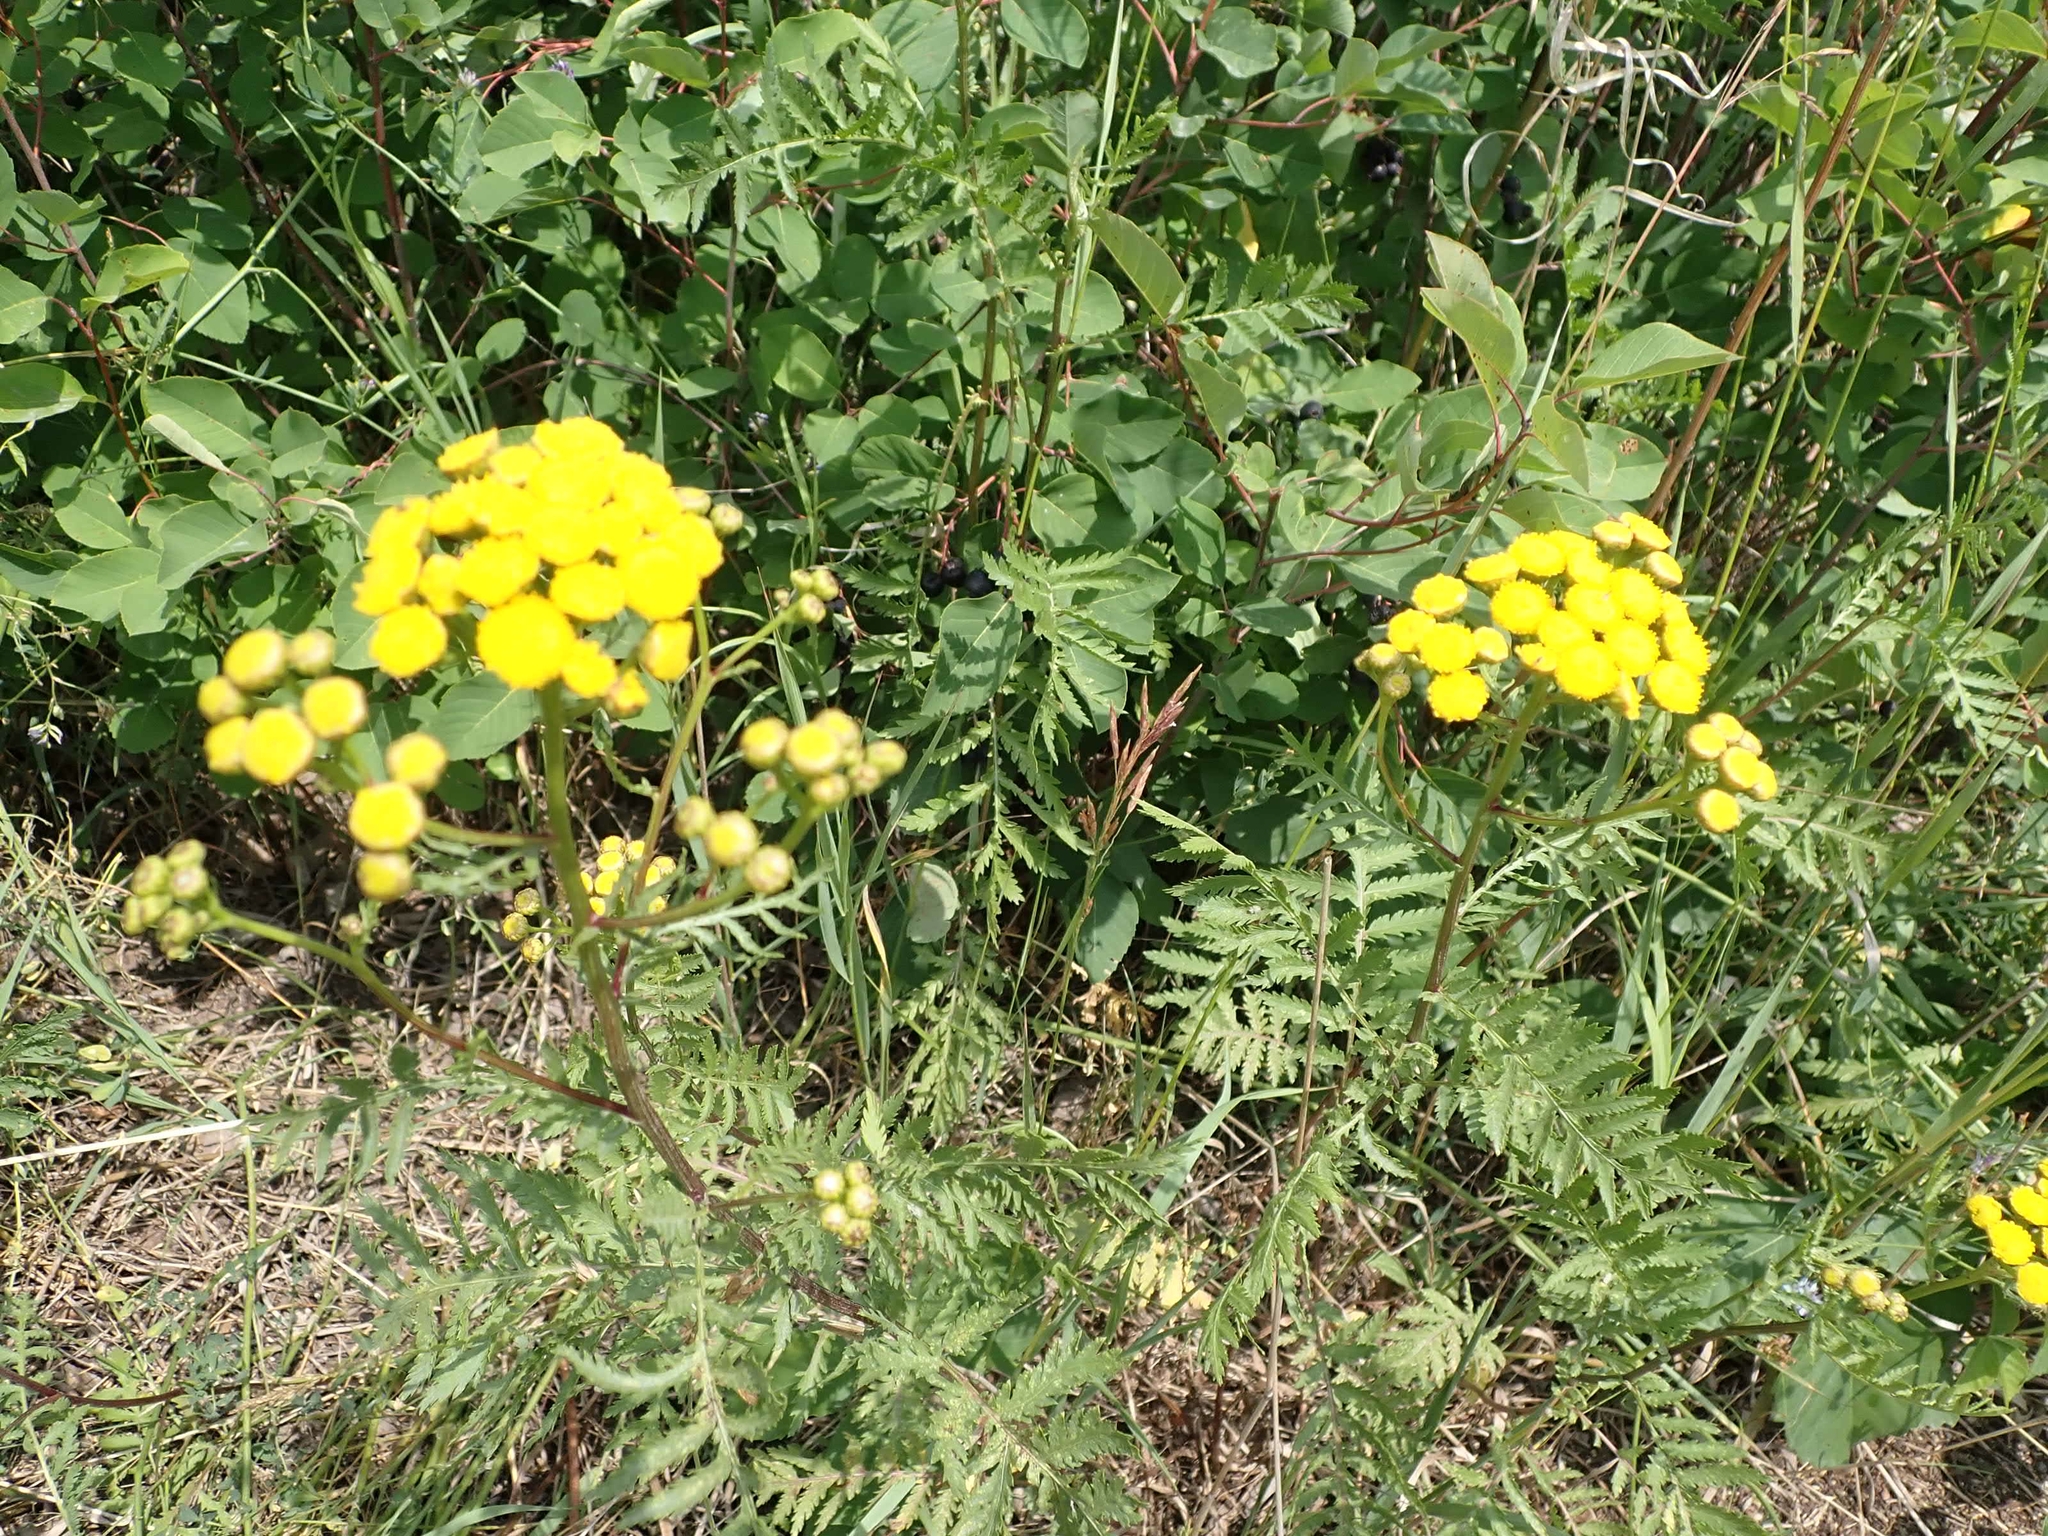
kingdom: Plantae
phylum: Tracheophyta
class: Magnoliopsida
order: Asterales
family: Asteraceae
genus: Tanacetum
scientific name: Tanacetum vulgare
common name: Common tansy
